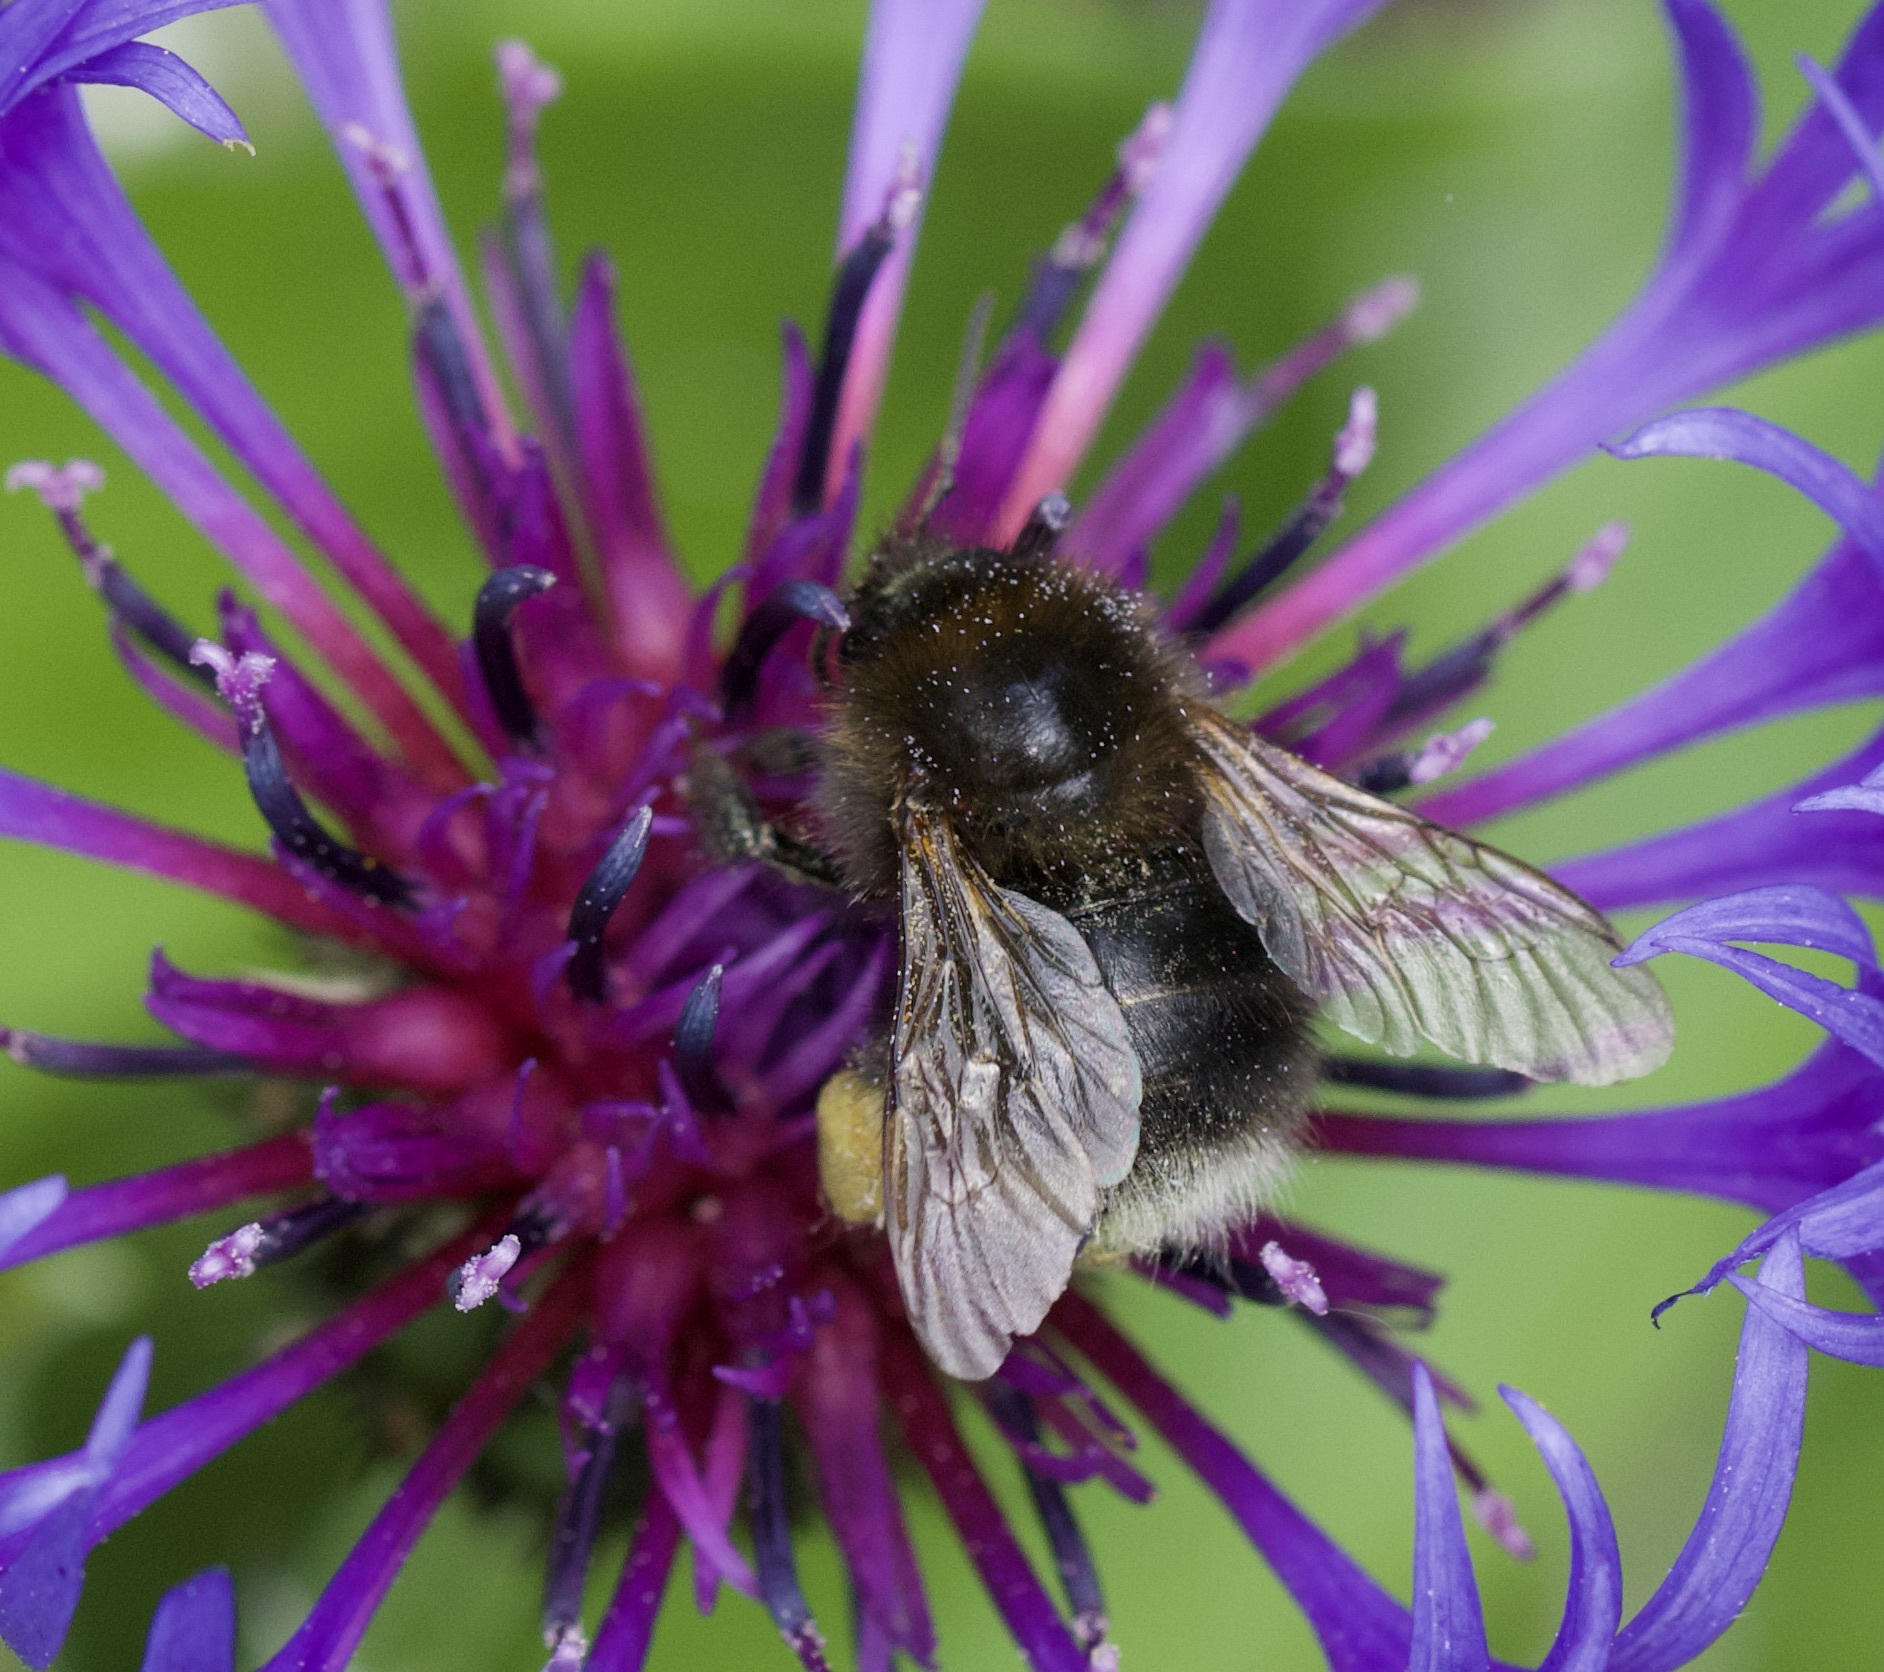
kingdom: Animalia
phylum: Arthropoda
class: Insecta
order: Hymenoptera
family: Apidae
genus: Bombus
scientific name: Bombus hypnorum
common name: New garden bumblebee
